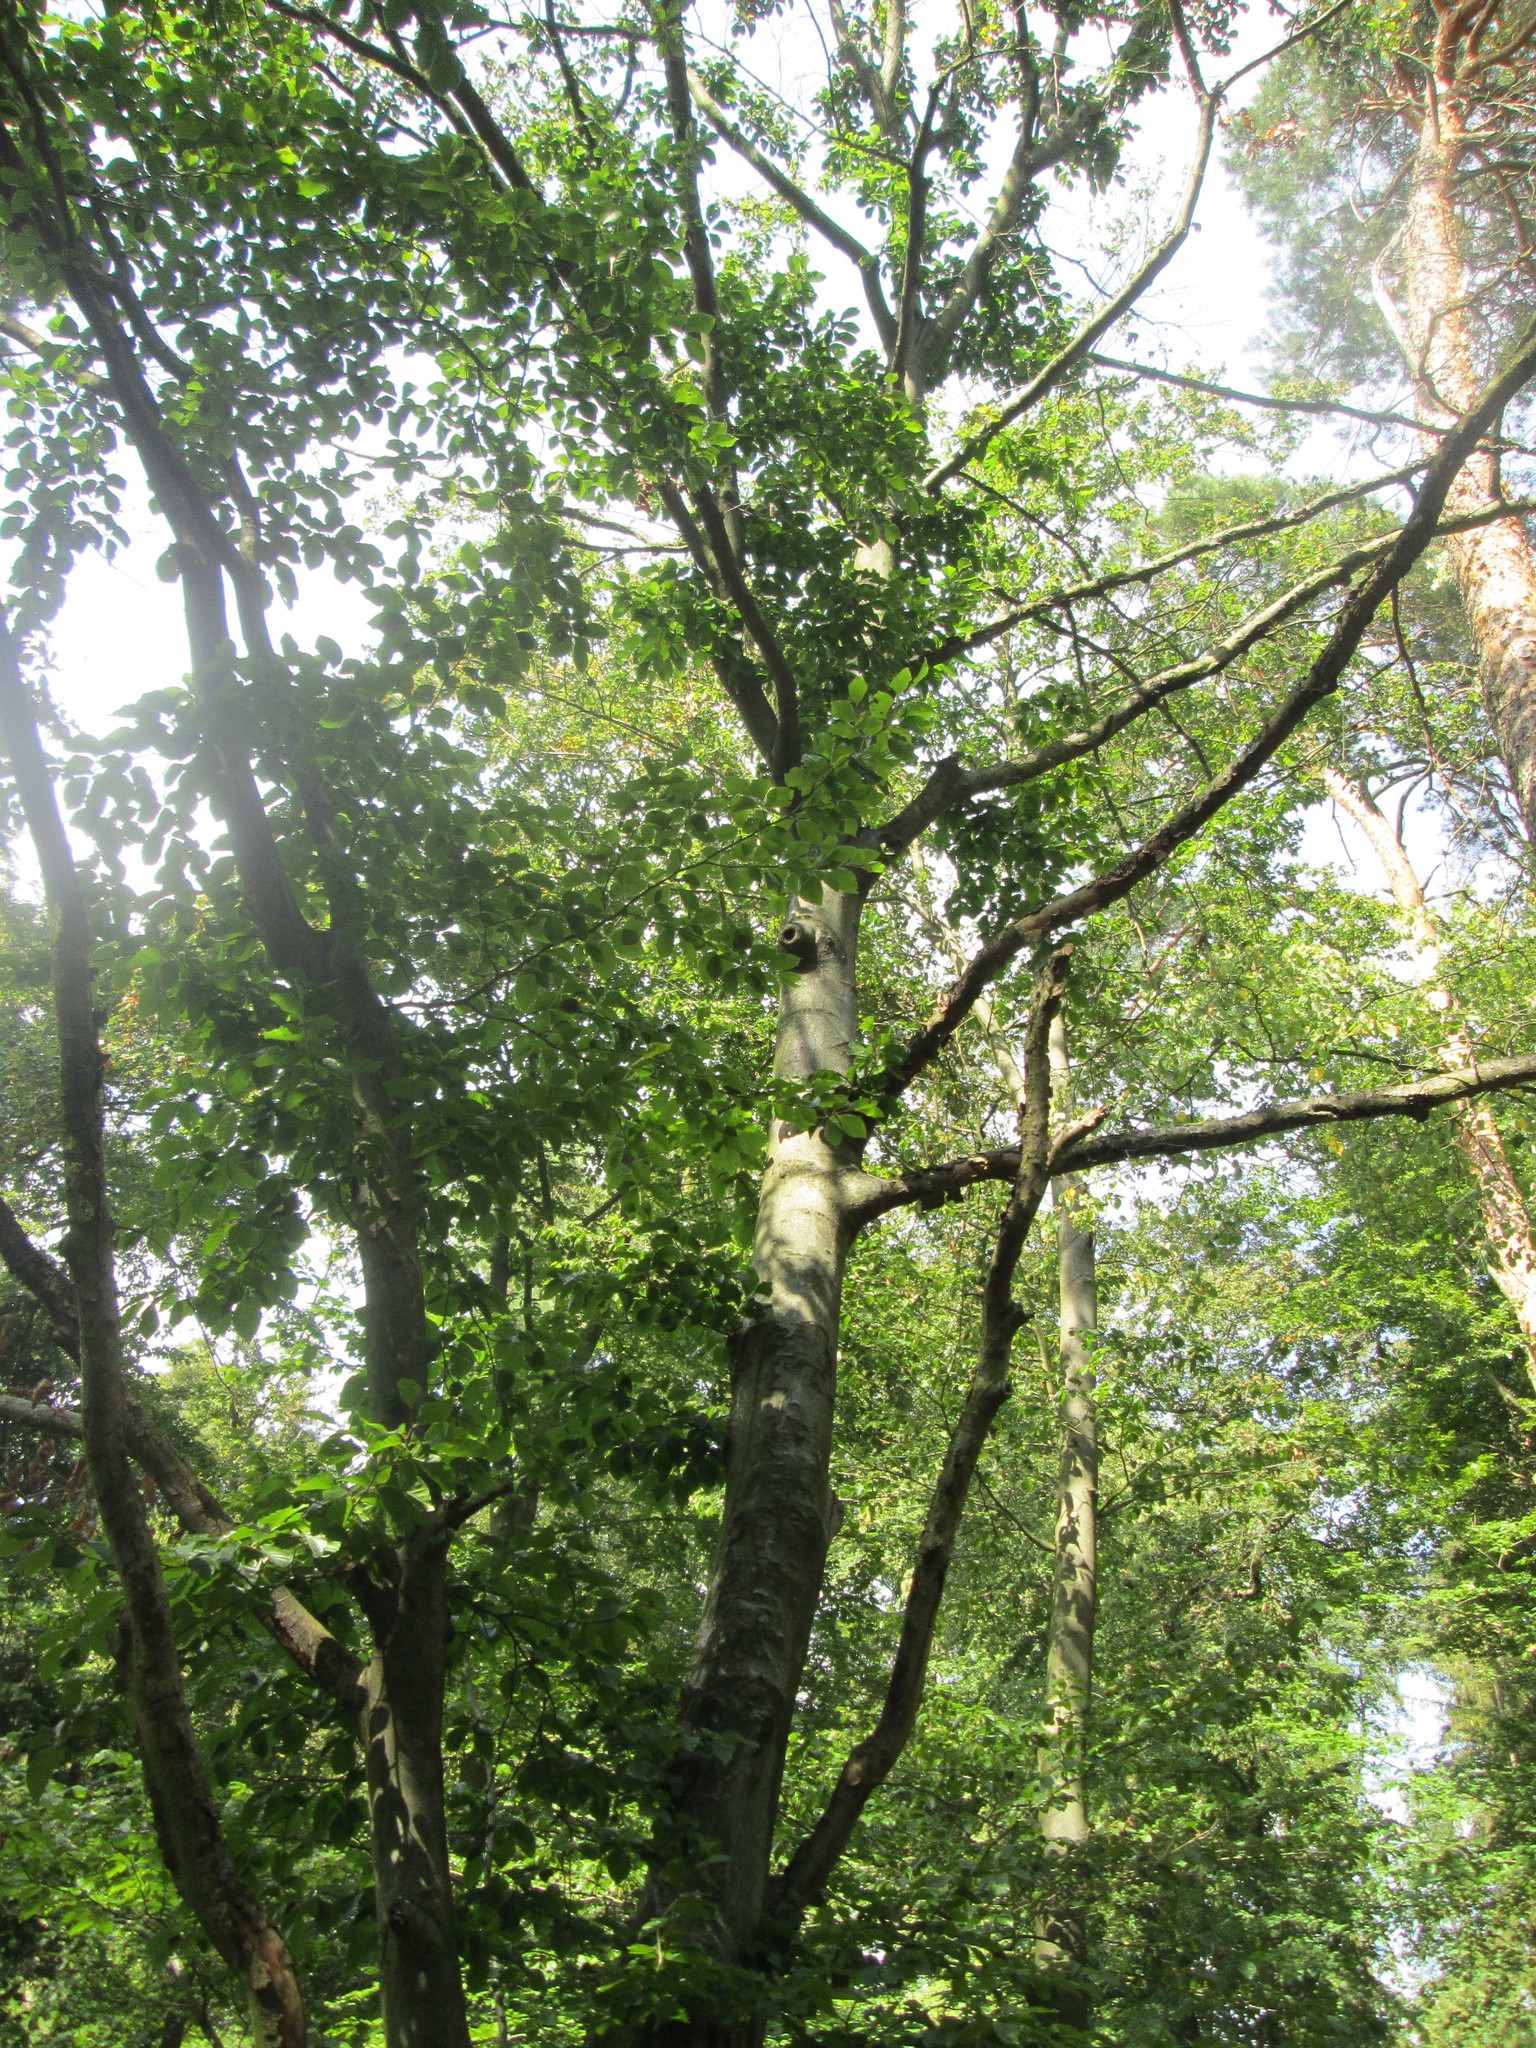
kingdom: Plantae
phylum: Tracheophyta
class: Magnoliopsida
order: Fagales
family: Fagaceae
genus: Fagus
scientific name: Fagus sylvatica
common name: Beech
